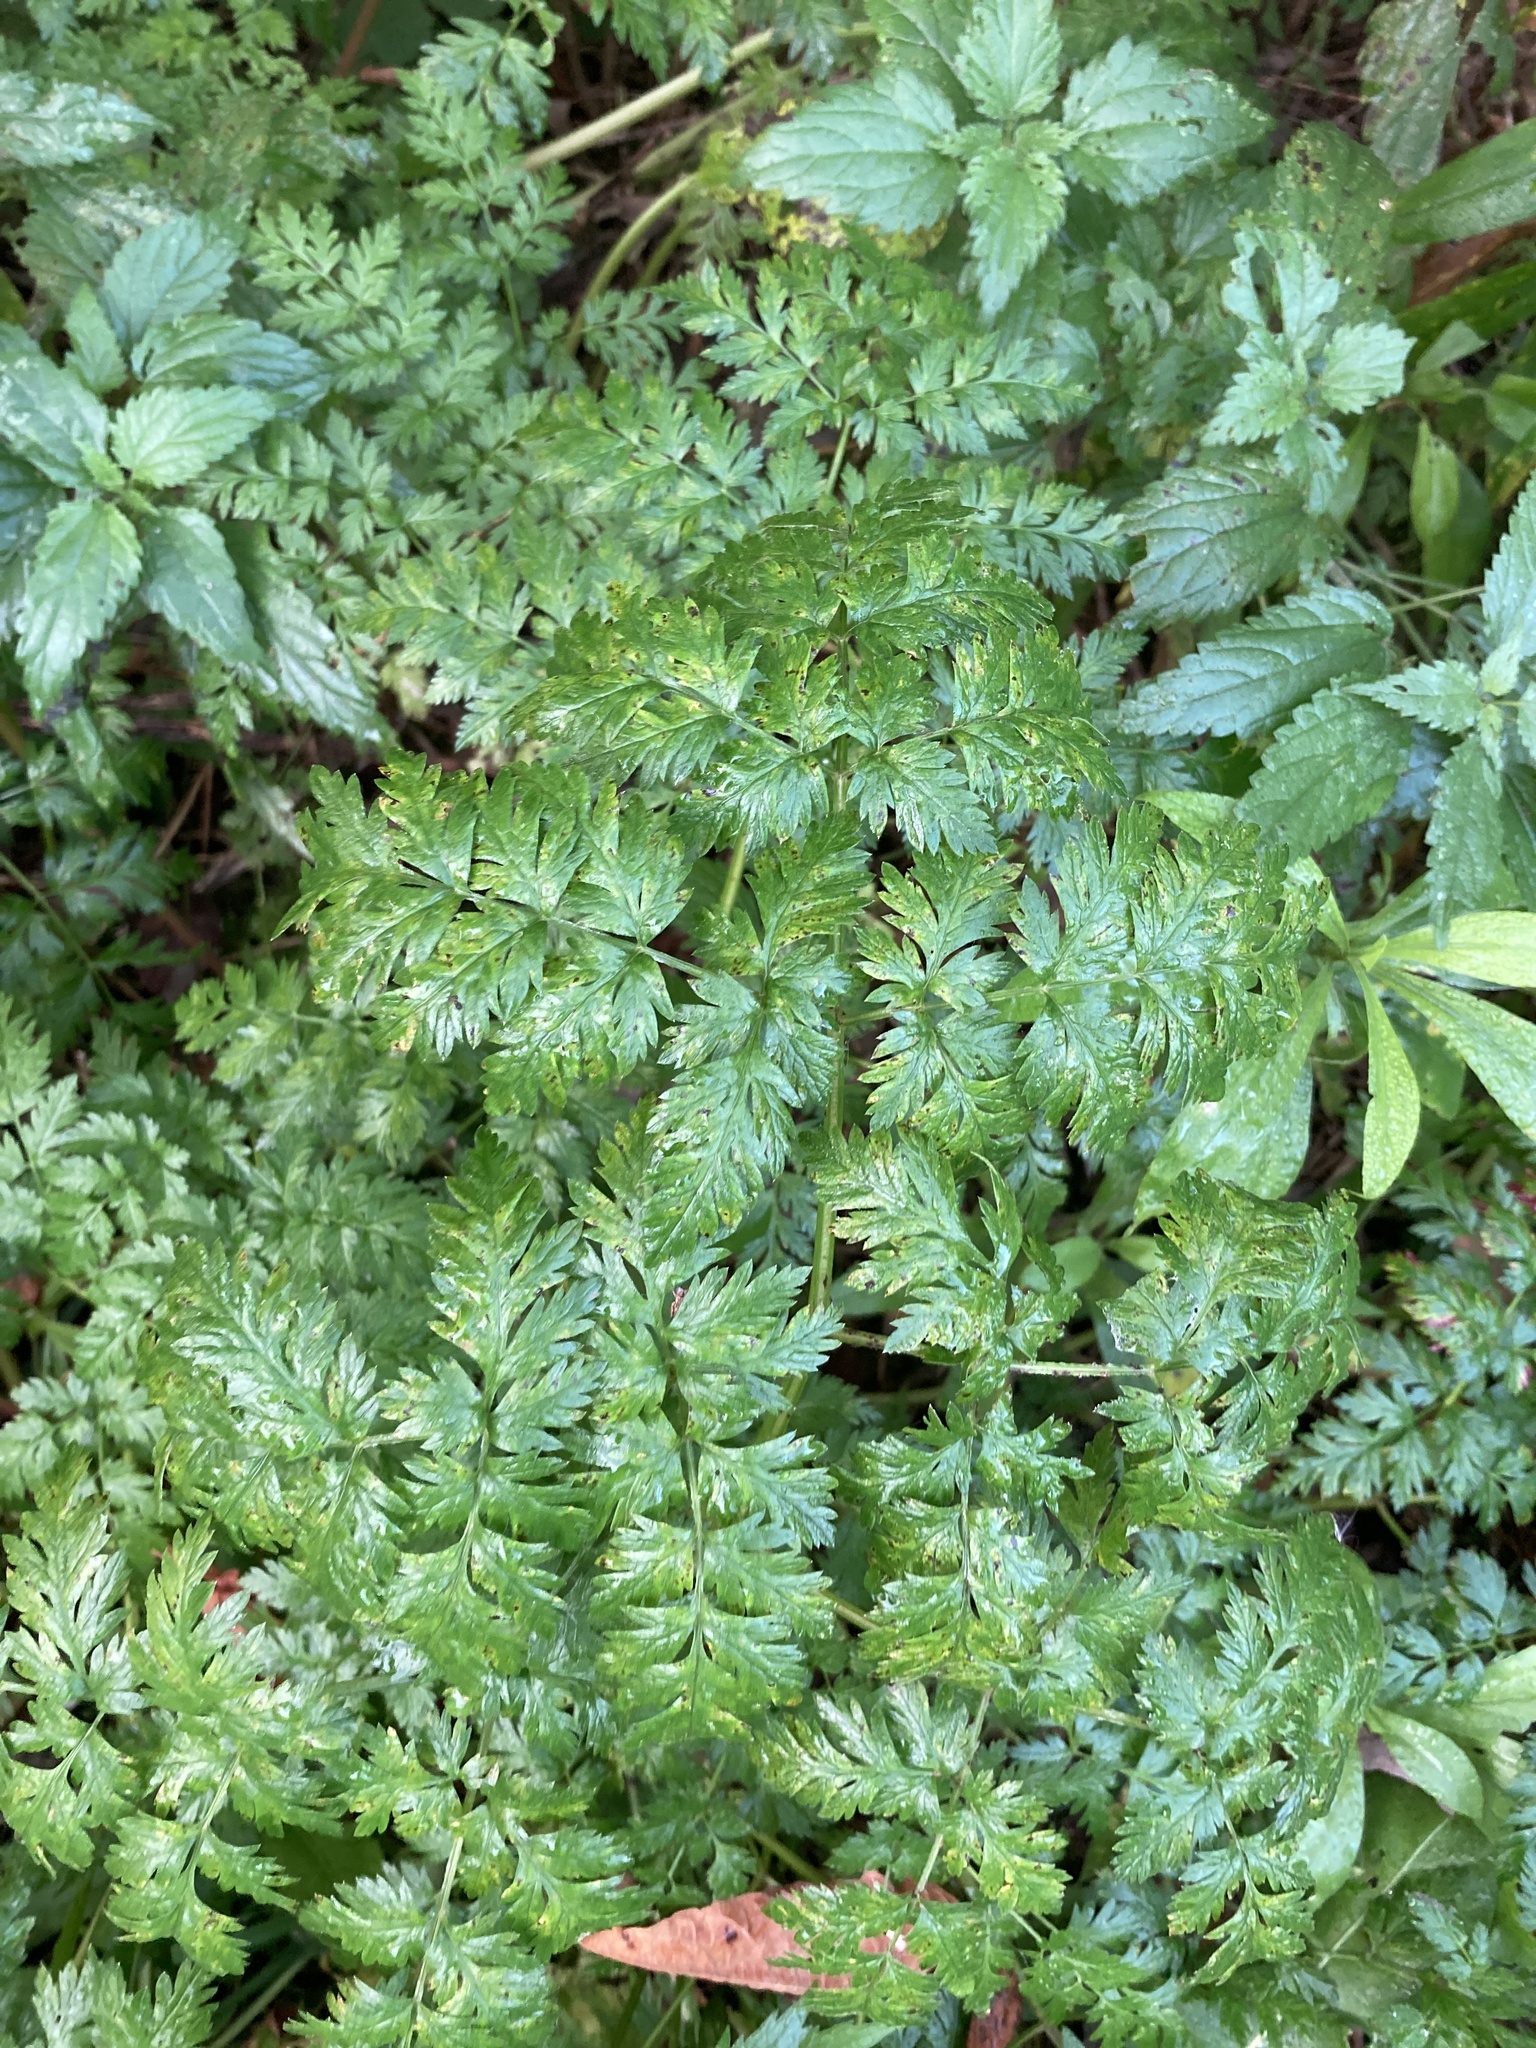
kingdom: Plantae
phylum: Tracheophyta
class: Magnoliopsida
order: Apiales
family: Apiaceae
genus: Anthriscus
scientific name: Anthriscus sylvestris
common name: Cow parsley
